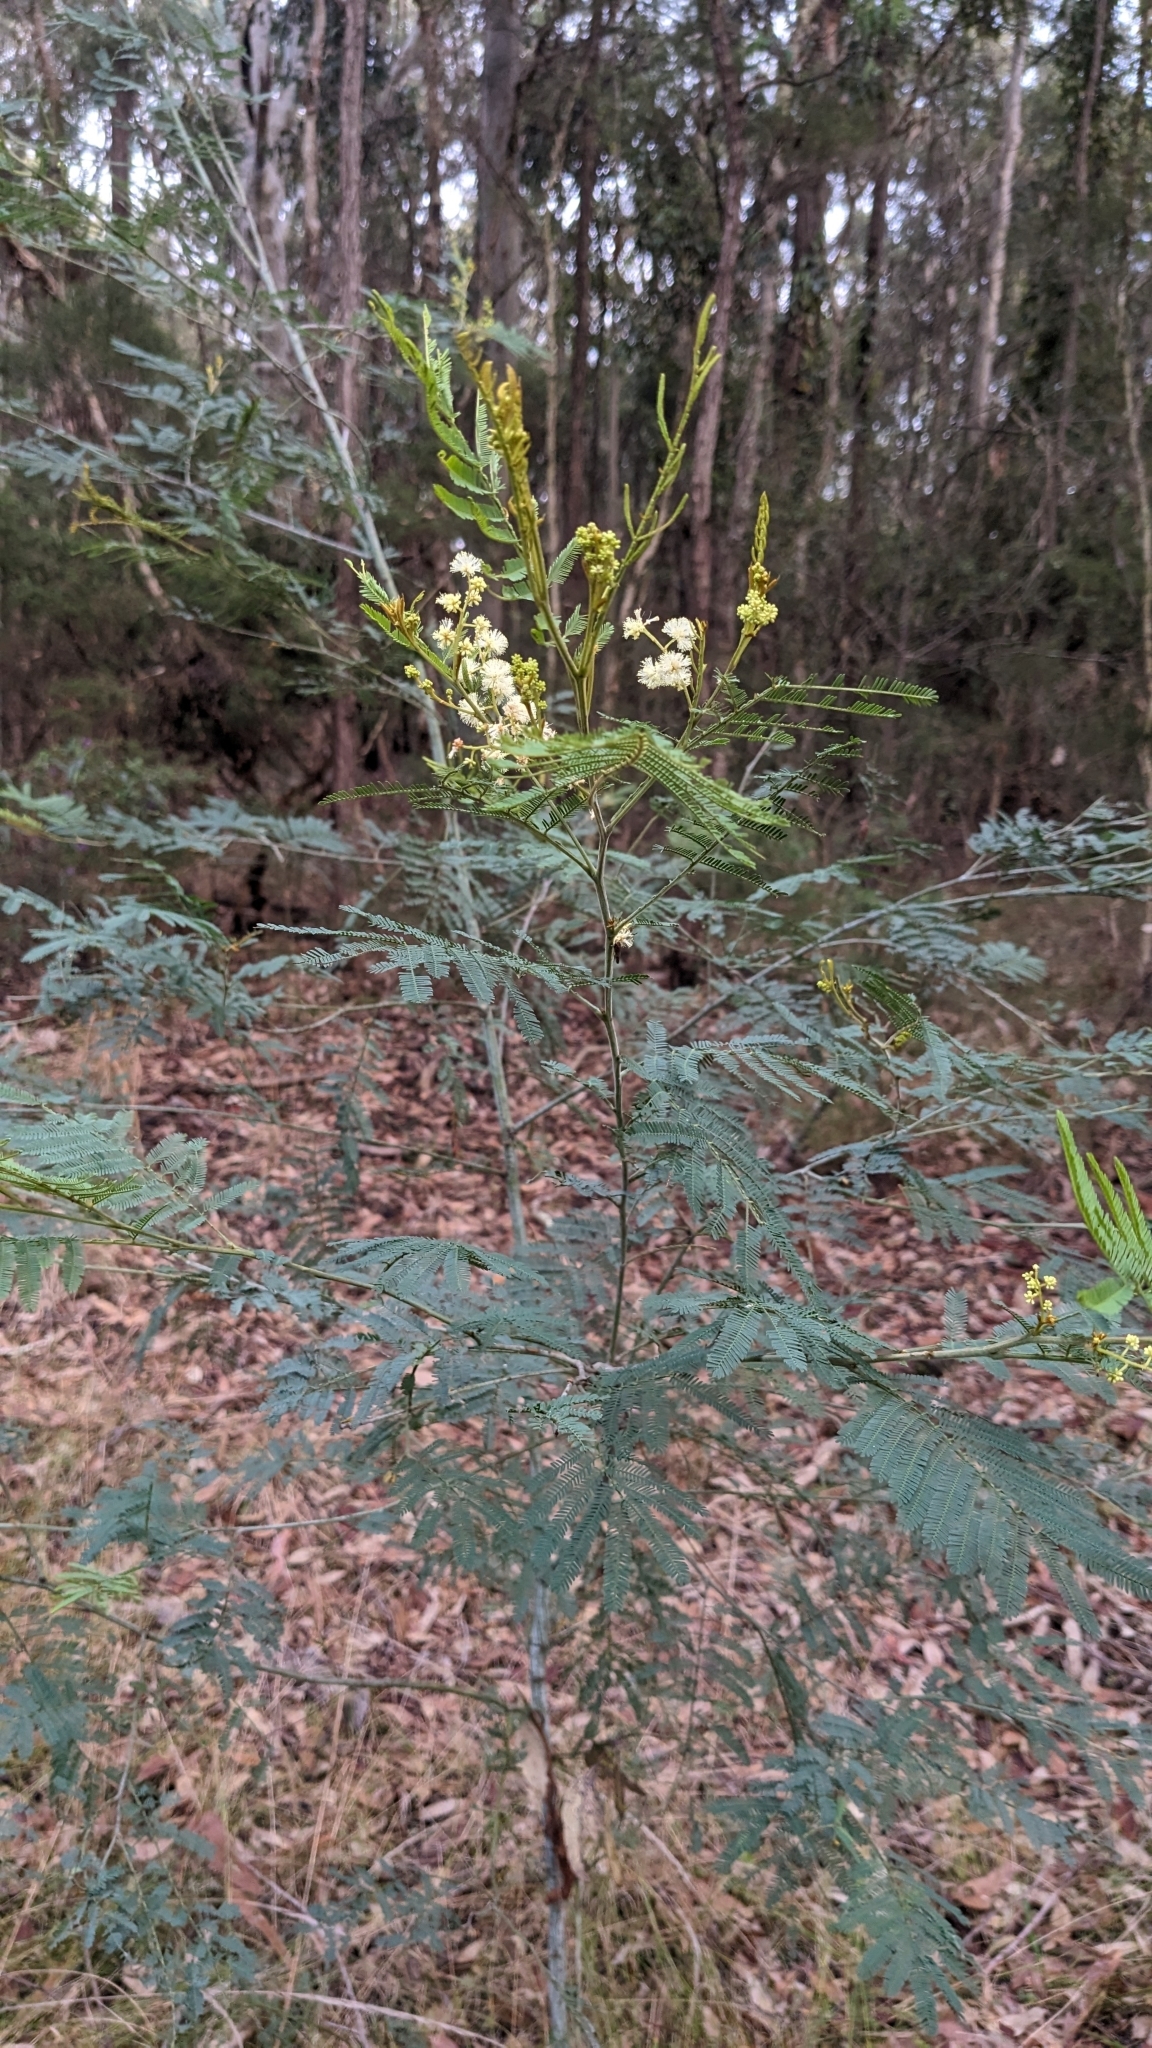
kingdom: Plantae
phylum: Tracheophyta
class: Magnoliopsida
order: Fabales
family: Fabaceae
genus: Acacia
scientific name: Acacia parvipinnula
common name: Silver-stem wattle
